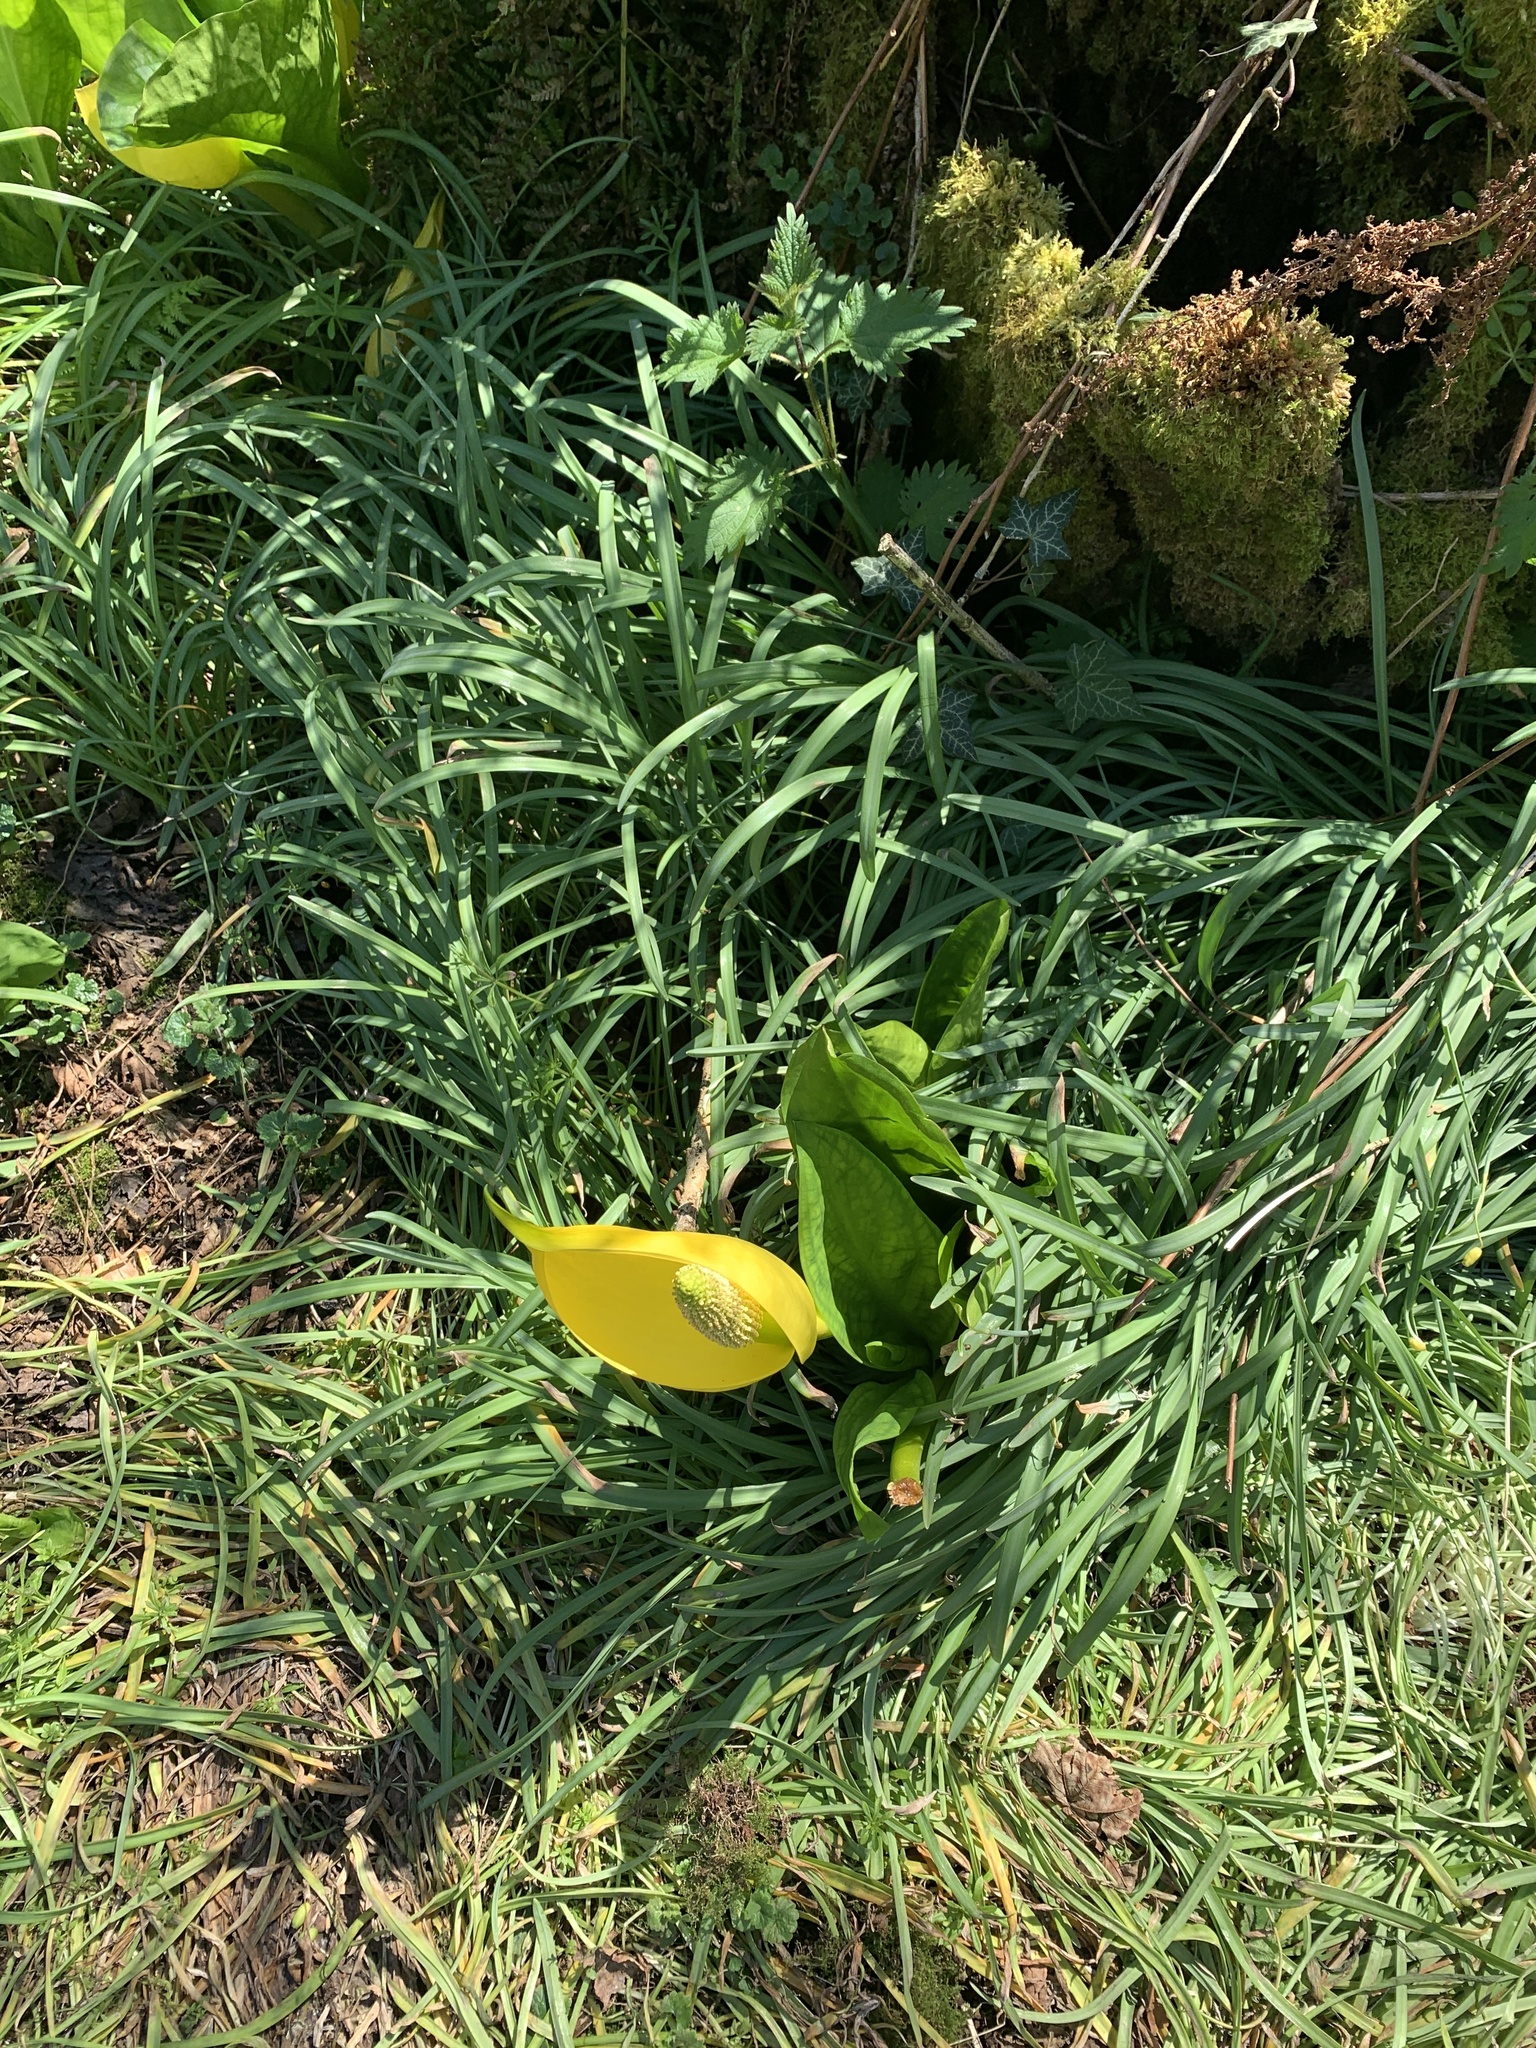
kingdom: Plantae
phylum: Tracheophyta
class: Liliopsida
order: Alismatales
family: Araceae
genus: Lysichiton
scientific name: Lysichiton americanus
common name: American skunk cabbage
